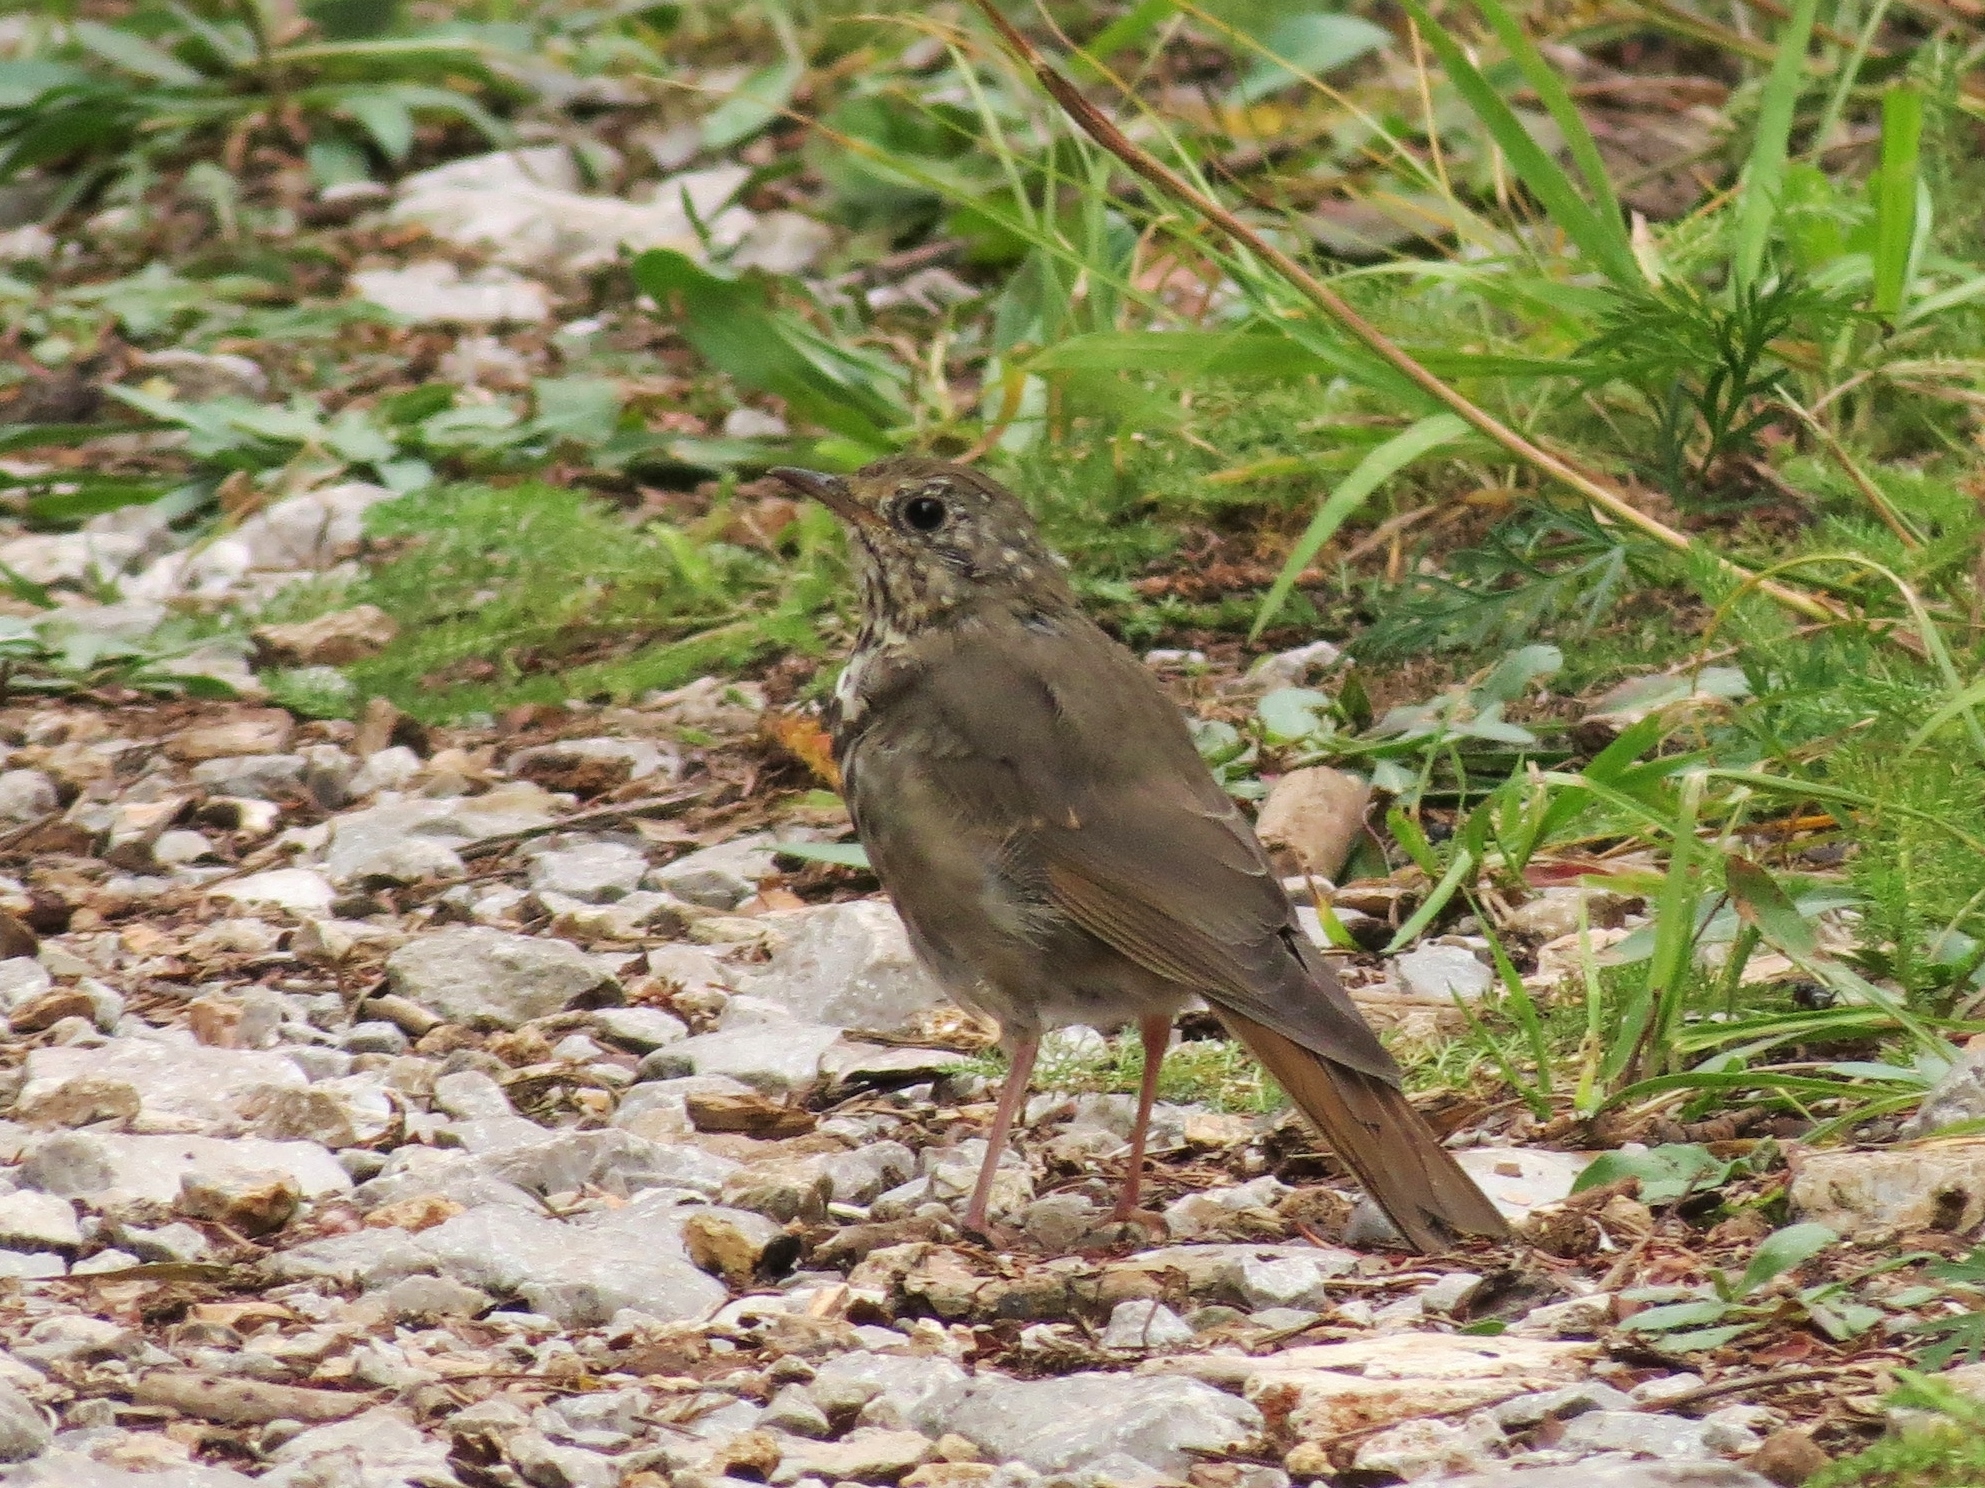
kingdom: Animalia
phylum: Chordata
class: Aves
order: Passeriformes
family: Turdidae
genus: Catharus
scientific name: Catharus guttatus
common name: Hermit thrush
